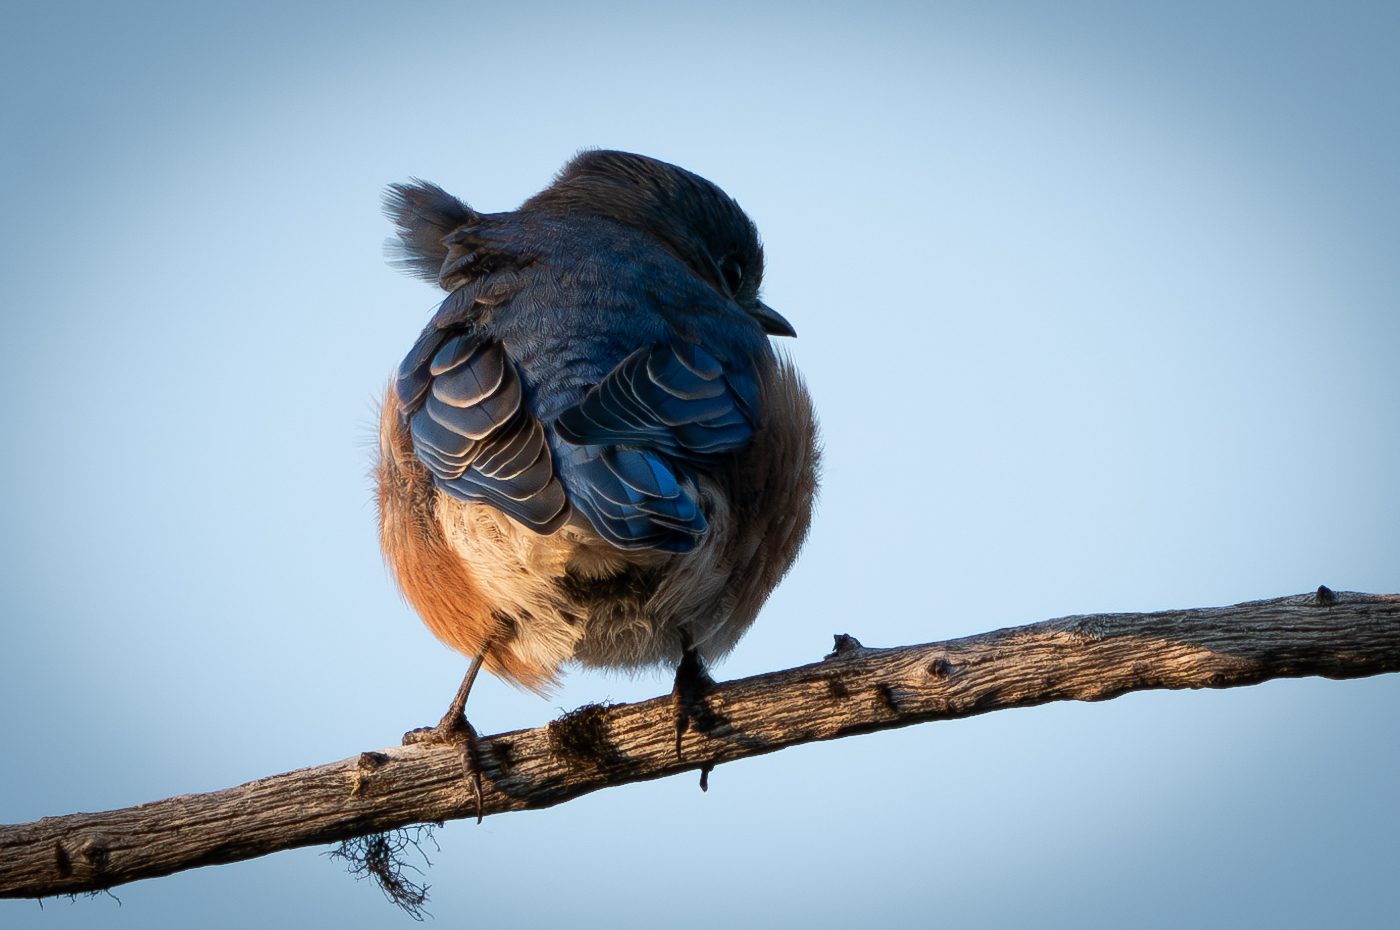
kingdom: Animalia
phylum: Chordata
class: Aves
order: Passeriformes
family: Turdidae
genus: Sialia
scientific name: Sialia sialis
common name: Eastern bluebird
